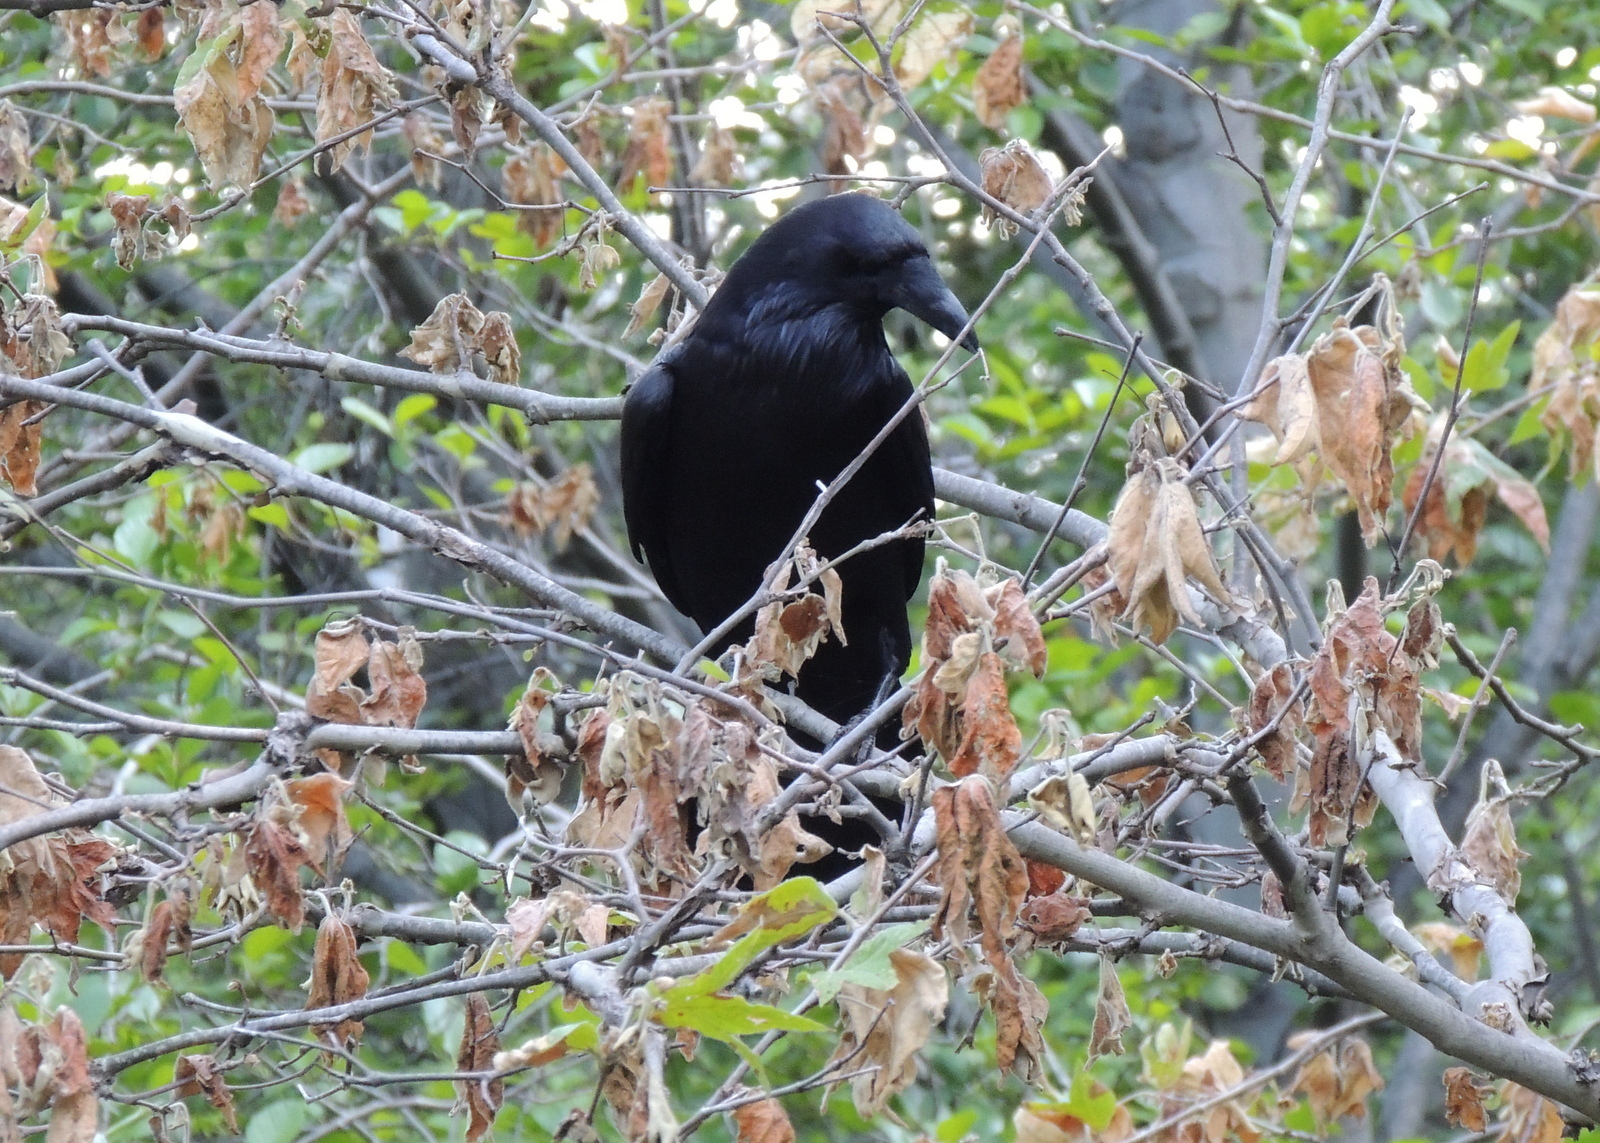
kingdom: Animalia
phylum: Chordata
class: Aves
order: Passeriformes
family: Corvidae
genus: Corvus
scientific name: Corvus corax
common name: Common raven
